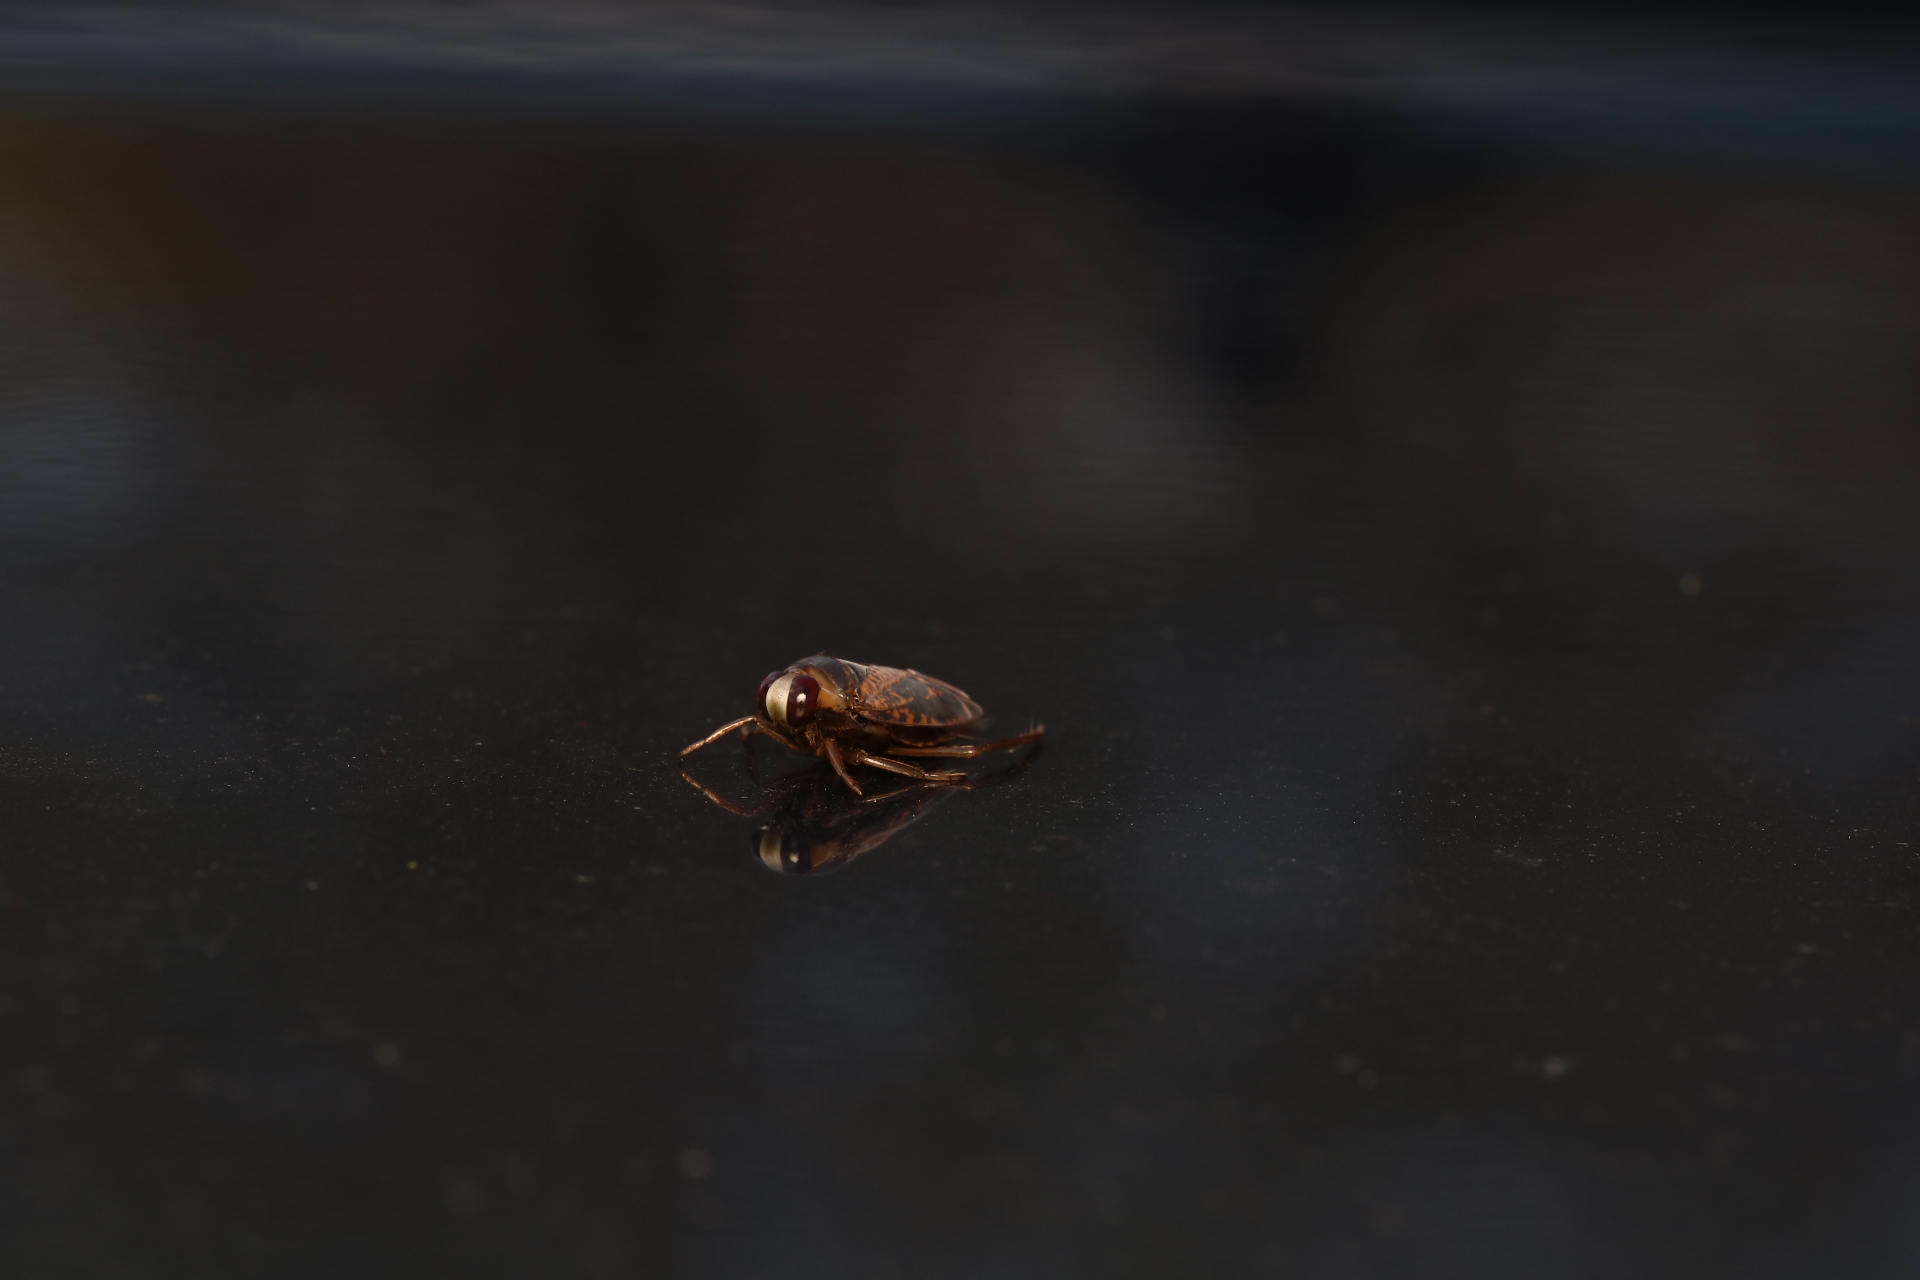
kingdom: Animalia
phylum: Arthropoda
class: Insecta
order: Hemiptera
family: Notonectidae
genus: Notonecta
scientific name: Notonecta irrorata
